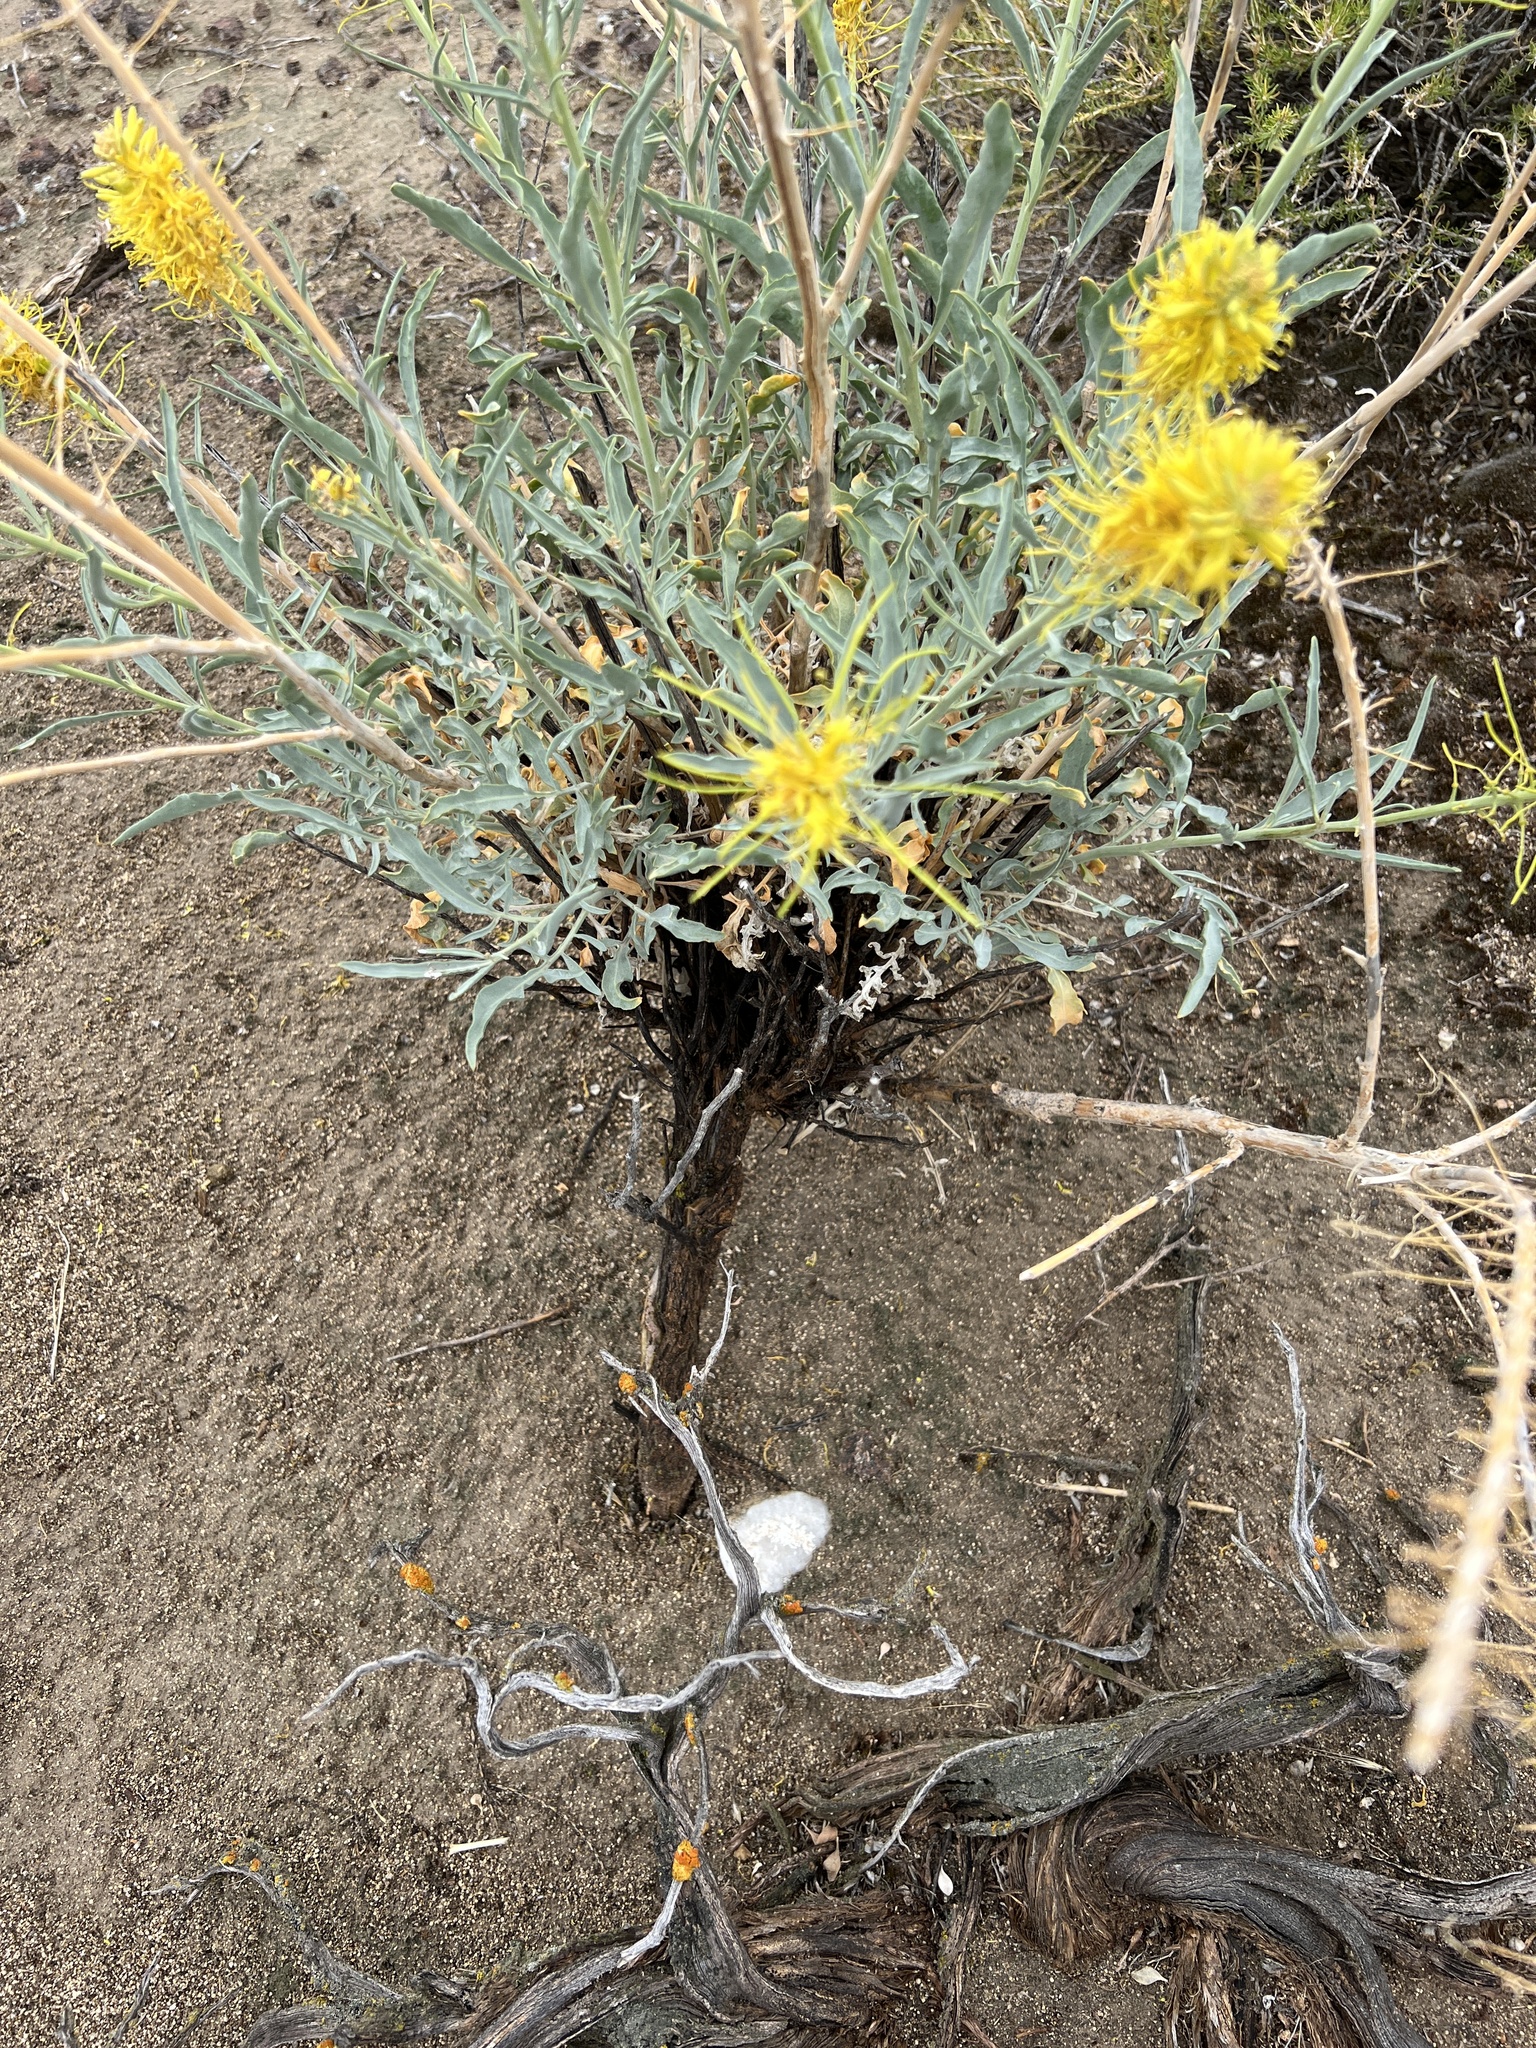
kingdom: Plantae
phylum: Tracheophyta
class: Magnoliopsida
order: Brassicales
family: Brassicaceae
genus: Stanleya
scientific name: Stanleya pinnata
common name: Prince's-plume
